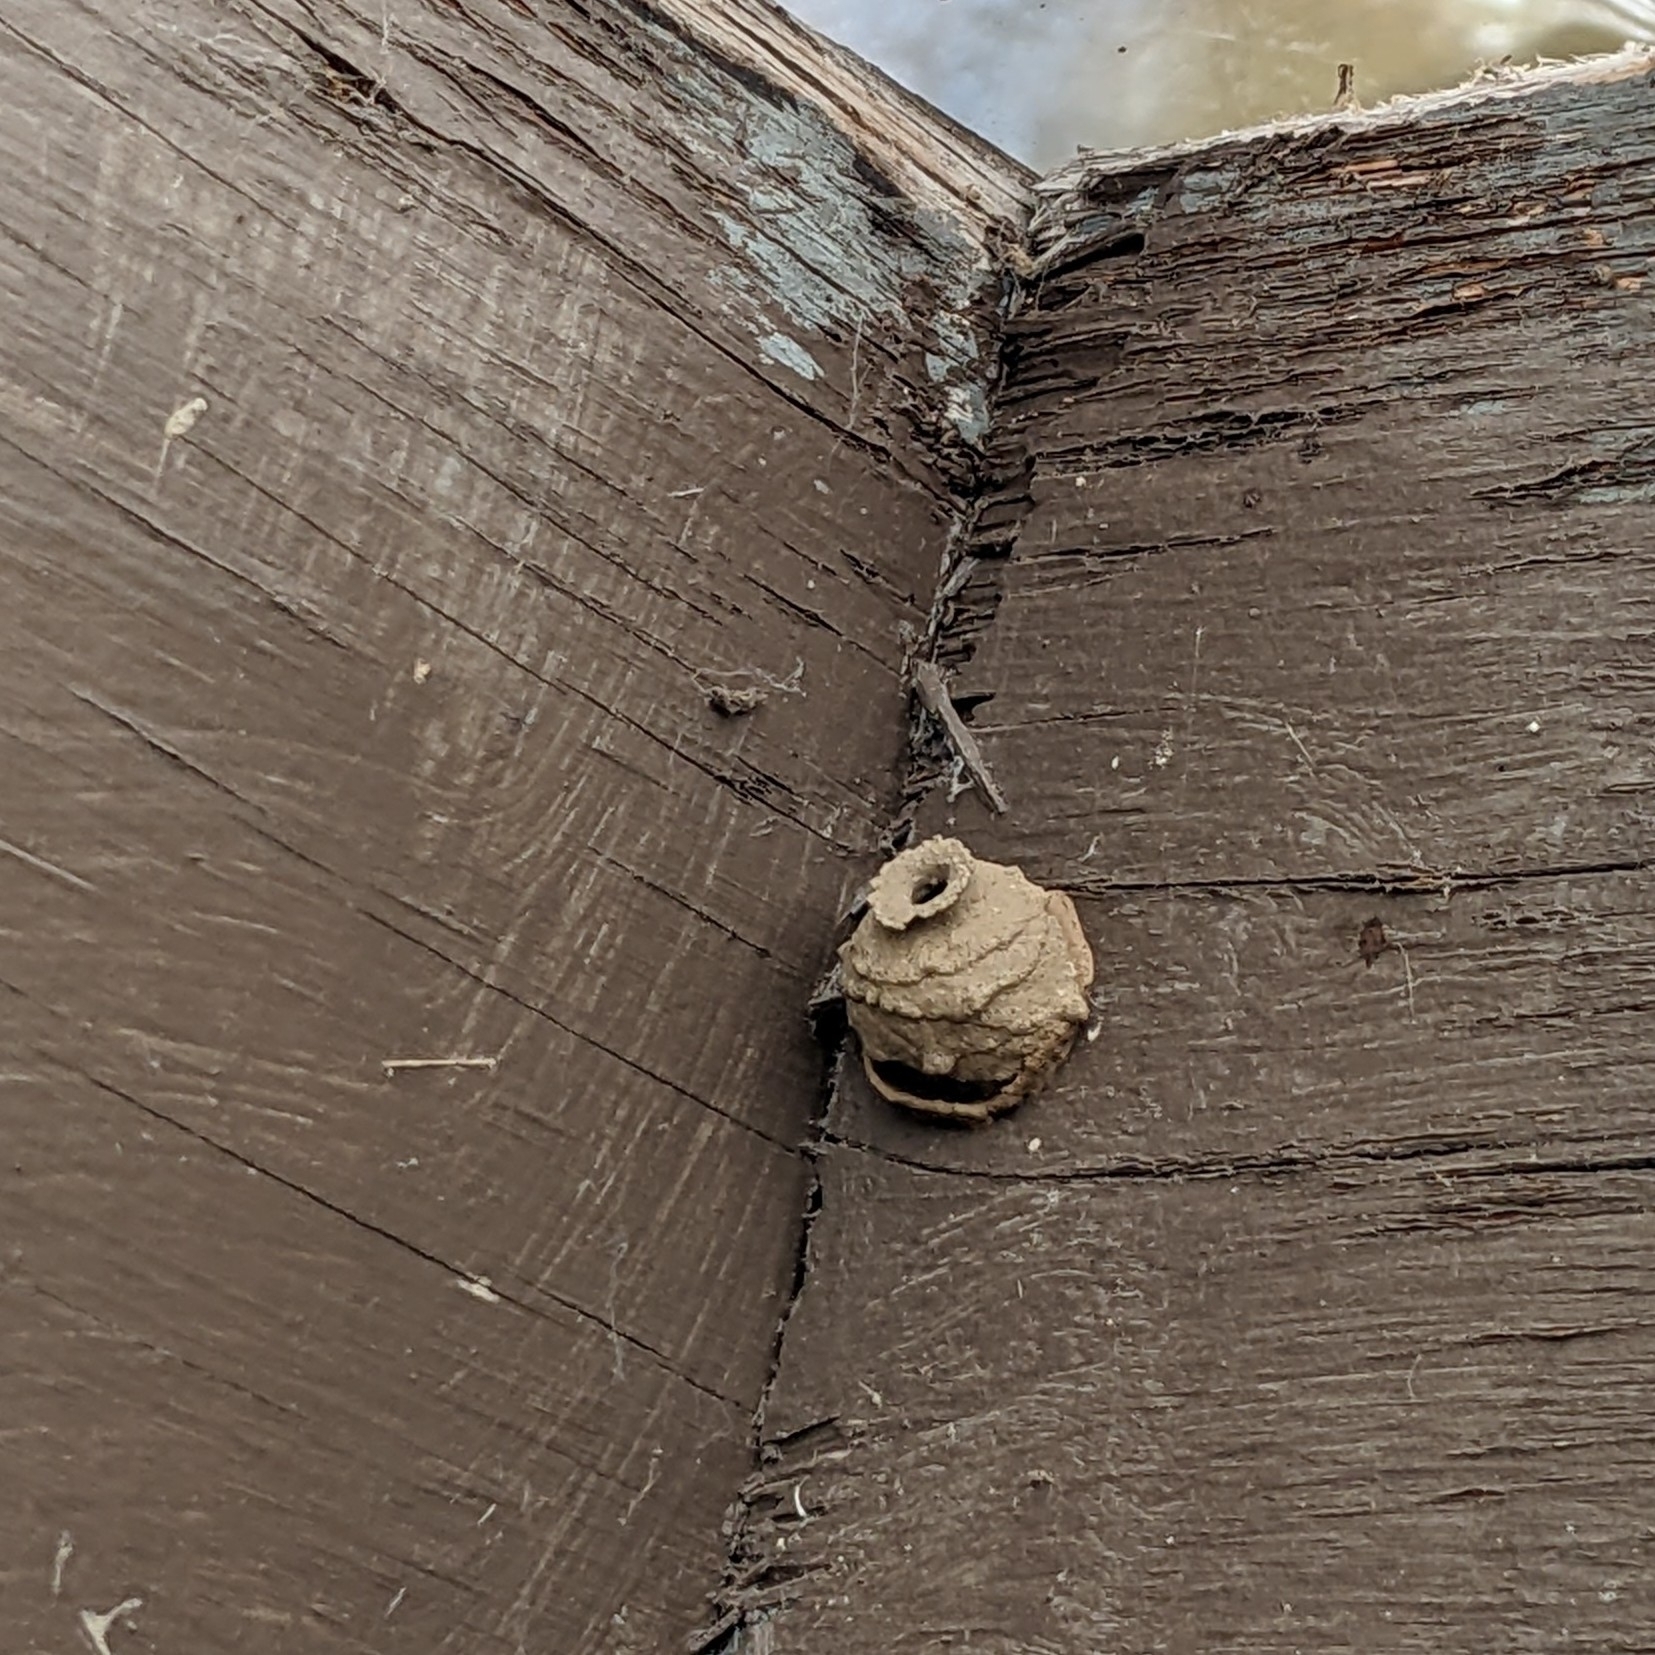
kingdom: Animalia
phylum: Arthropoda
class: Insecta
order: Hymenoptera
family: Vespidae
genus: Eumenes
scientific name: Eumenes
